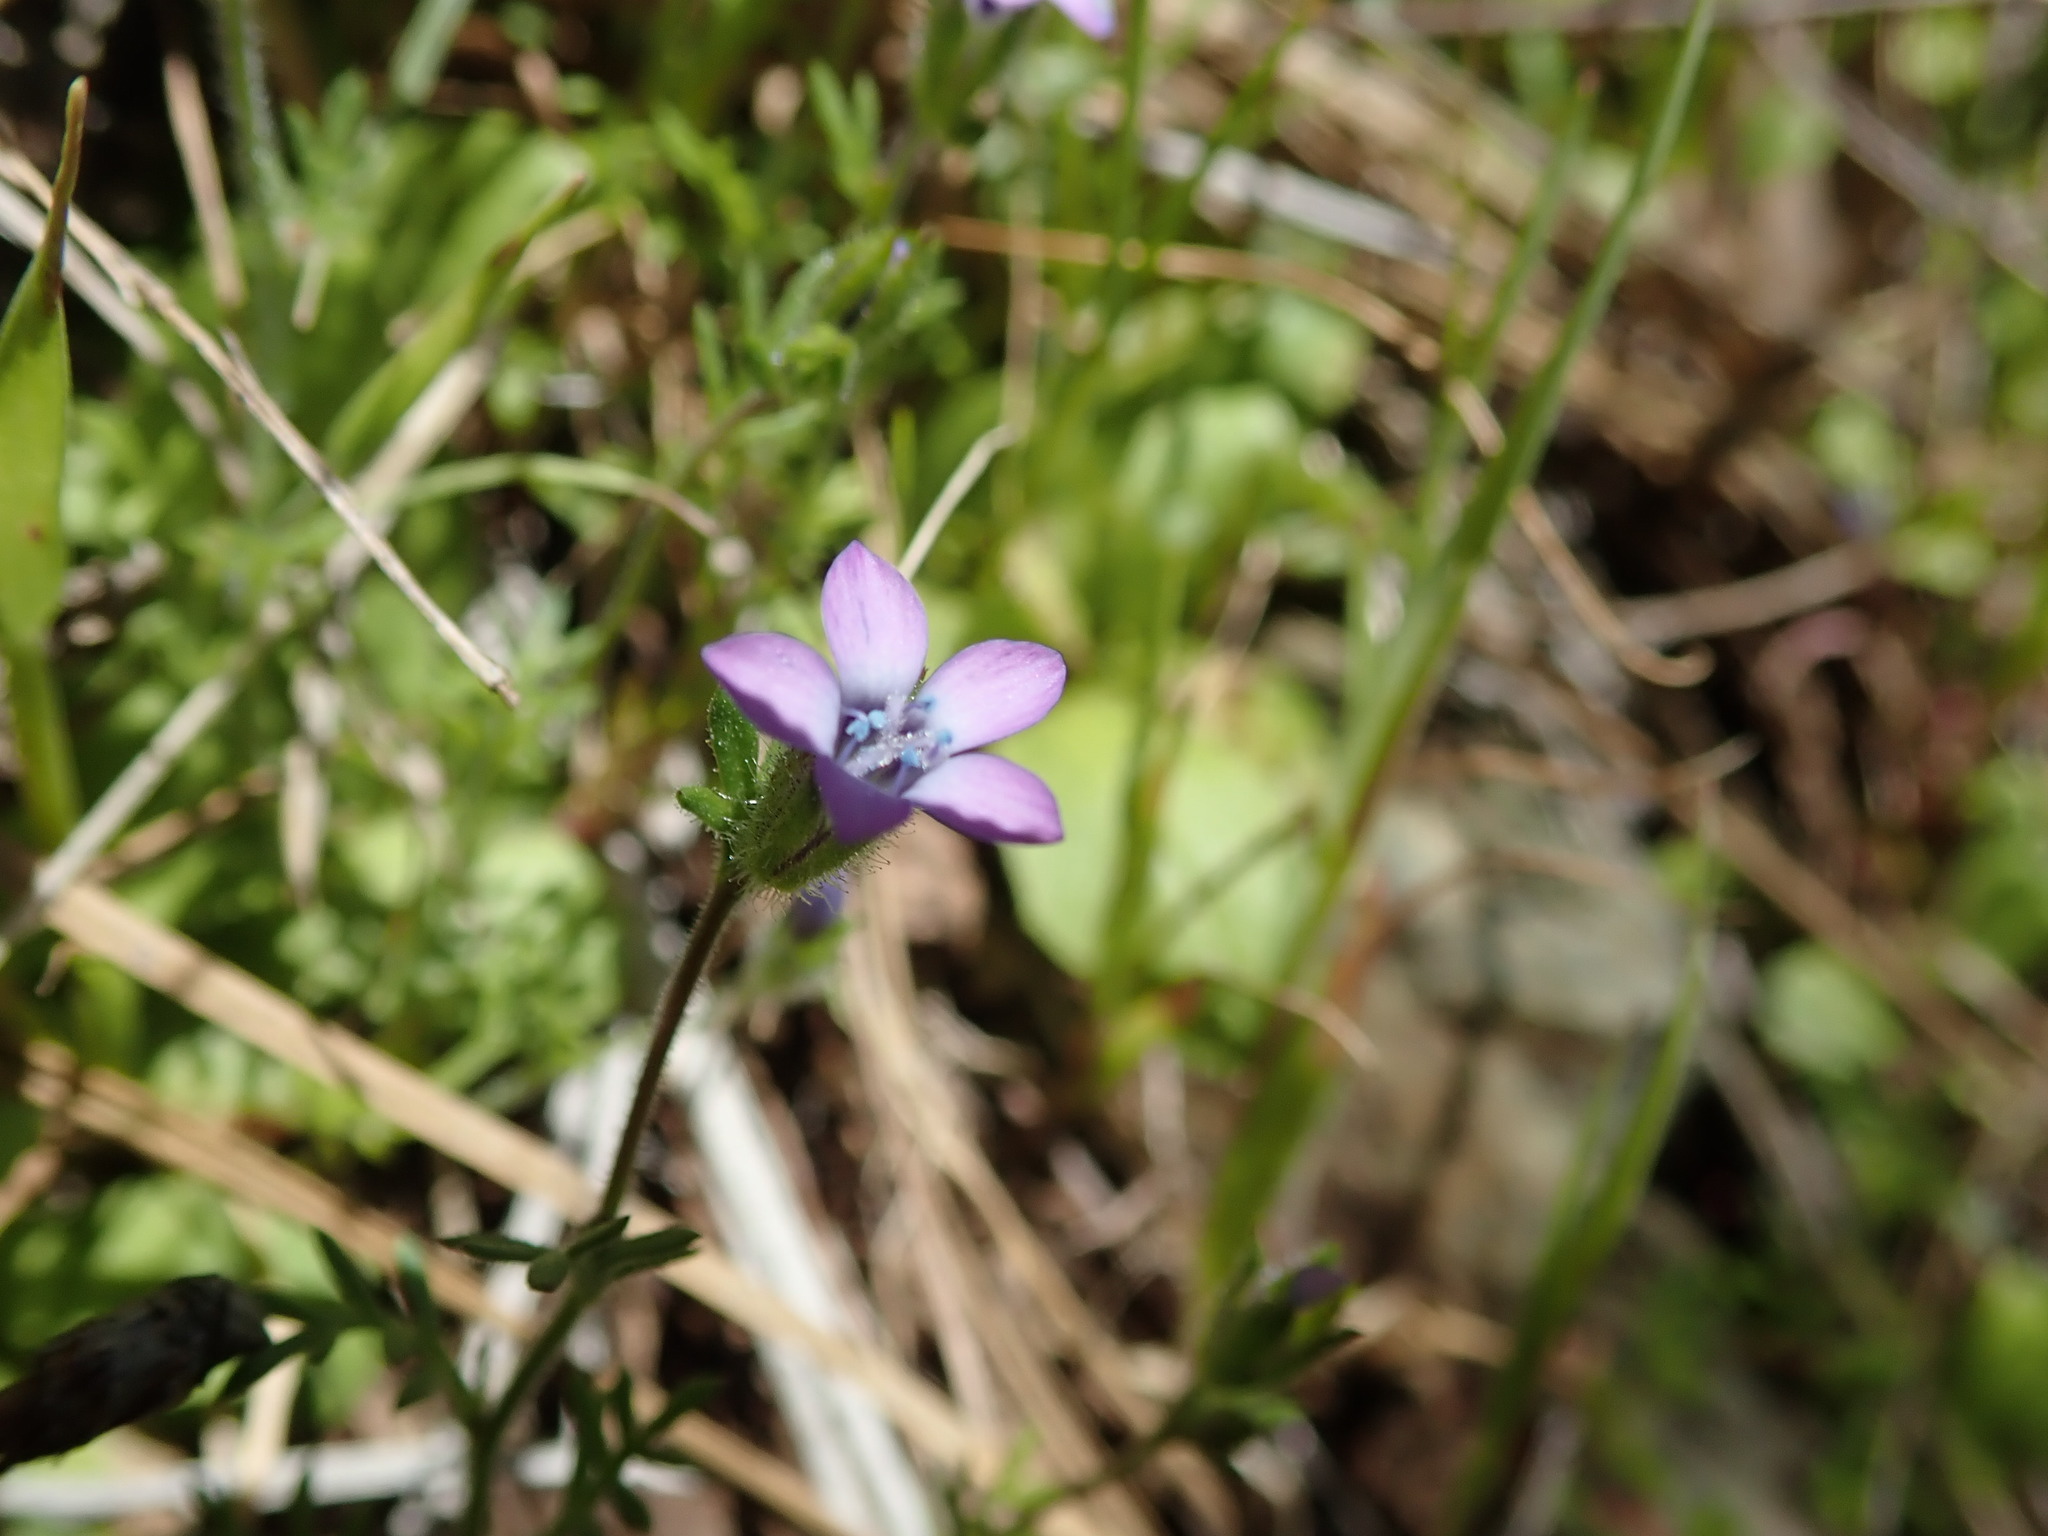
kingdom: Plantae
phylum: Tracheophyta
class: Magnoliopsida
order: Ericales
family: Polemoniaceae
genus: Gilia
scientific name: Gilia clivorum
